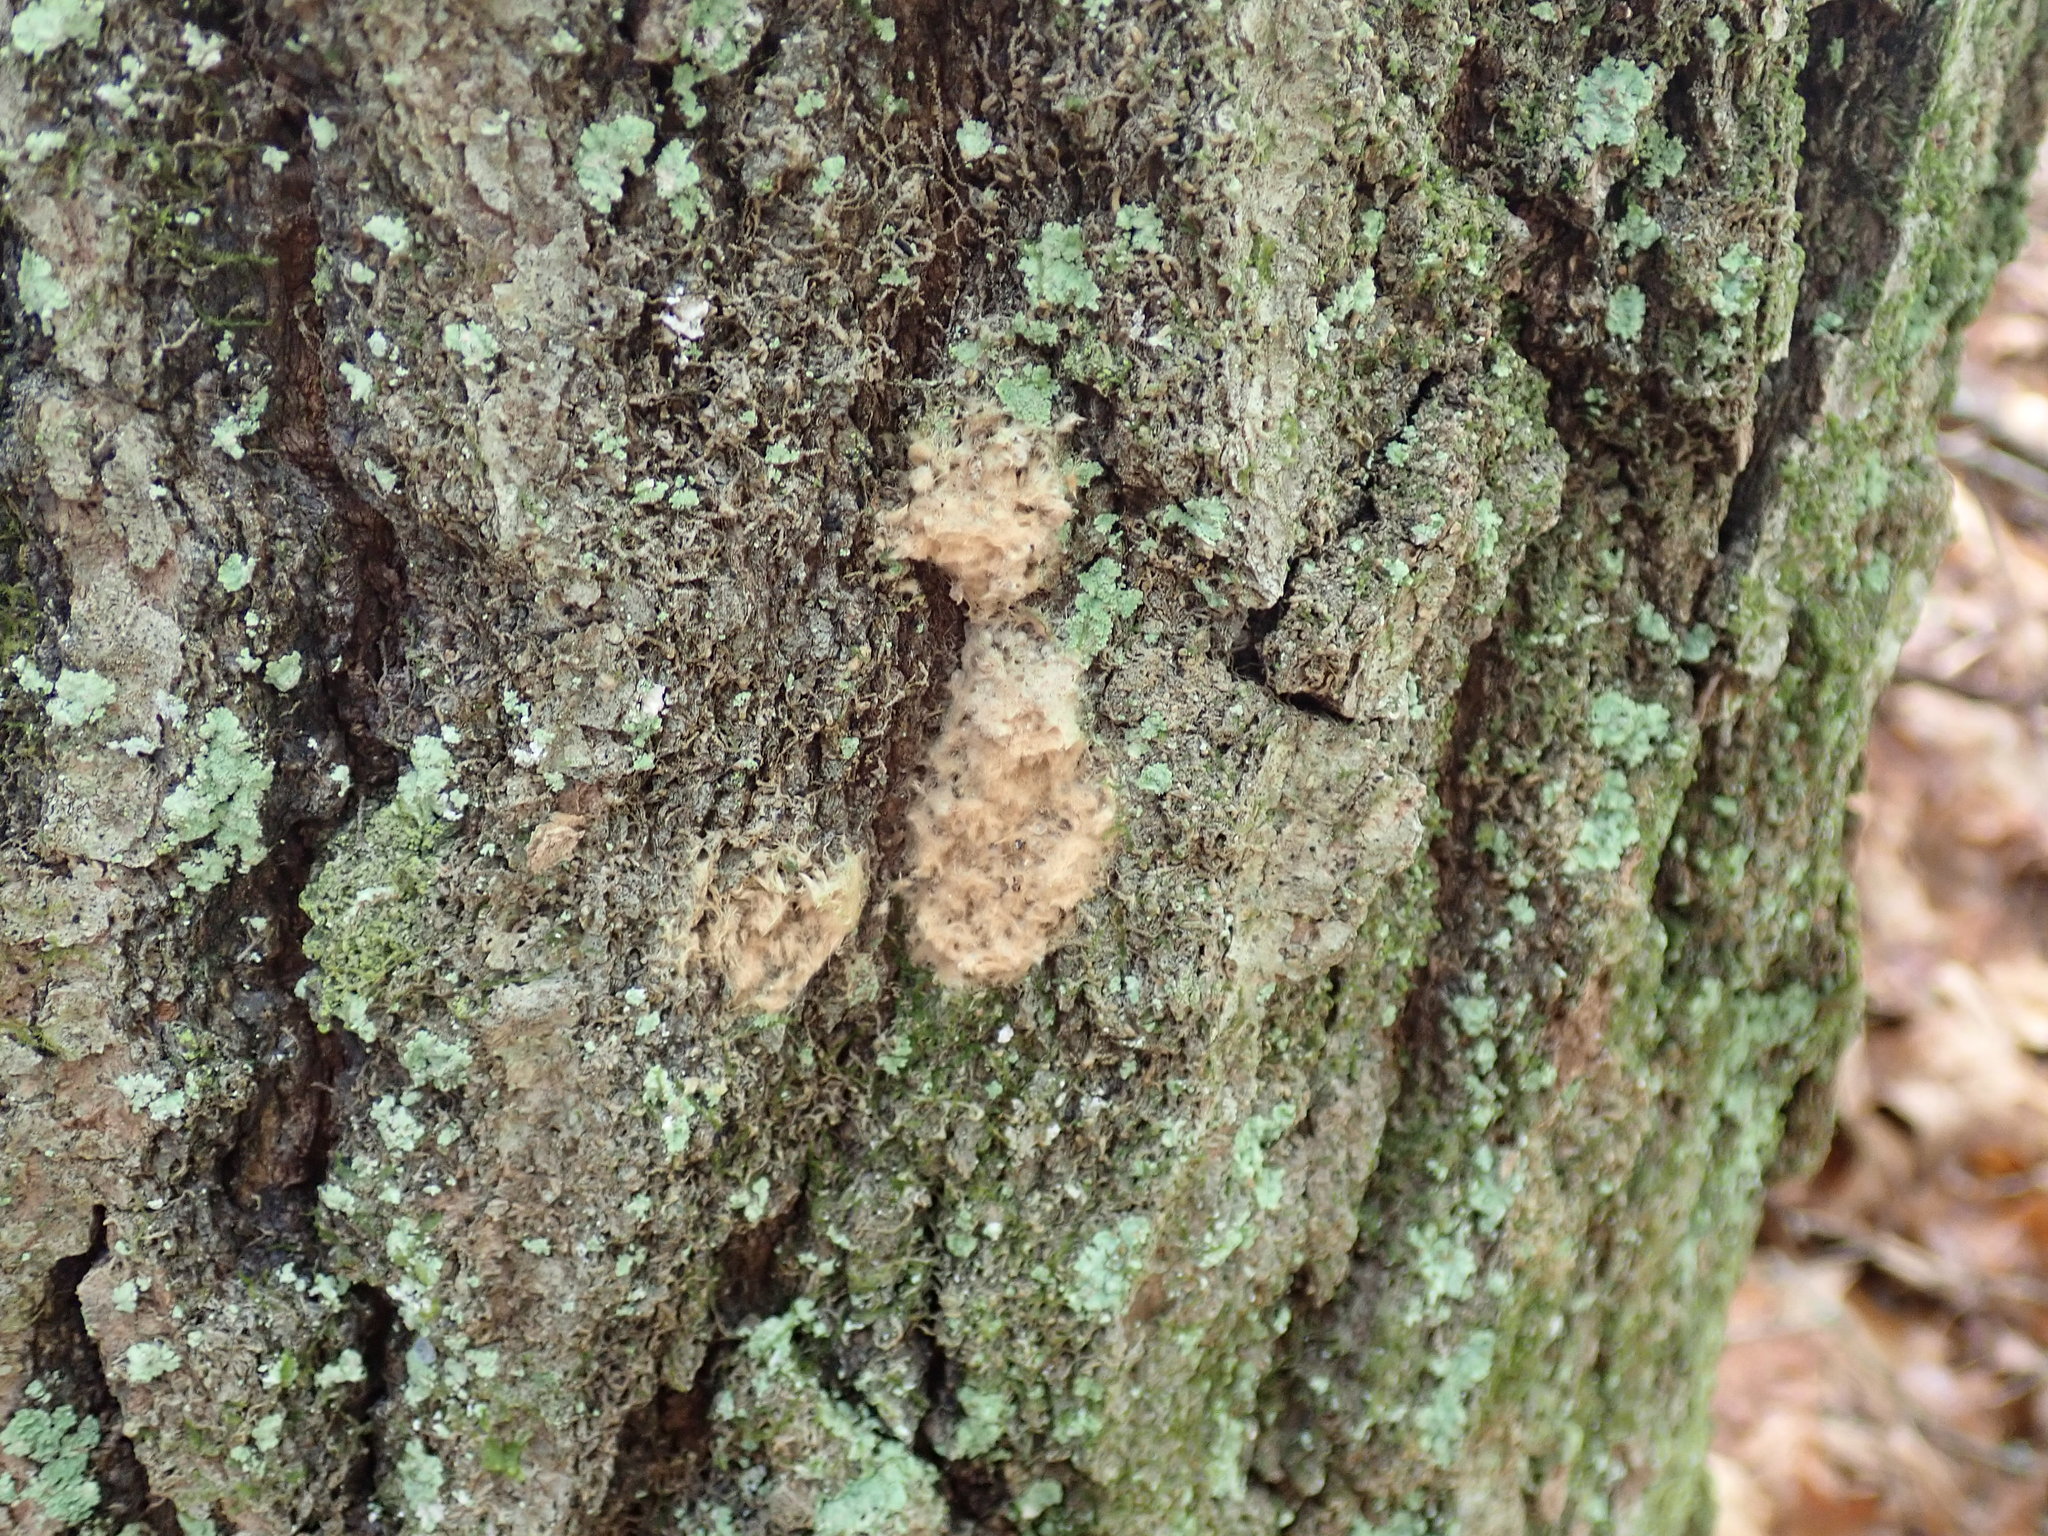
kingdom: Animalia
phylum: Arthropoda
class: Insecta
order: Lepidoptera
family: Erebidae
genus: Lymantria
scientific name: Lymantria dispar
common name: Gypsy moth
